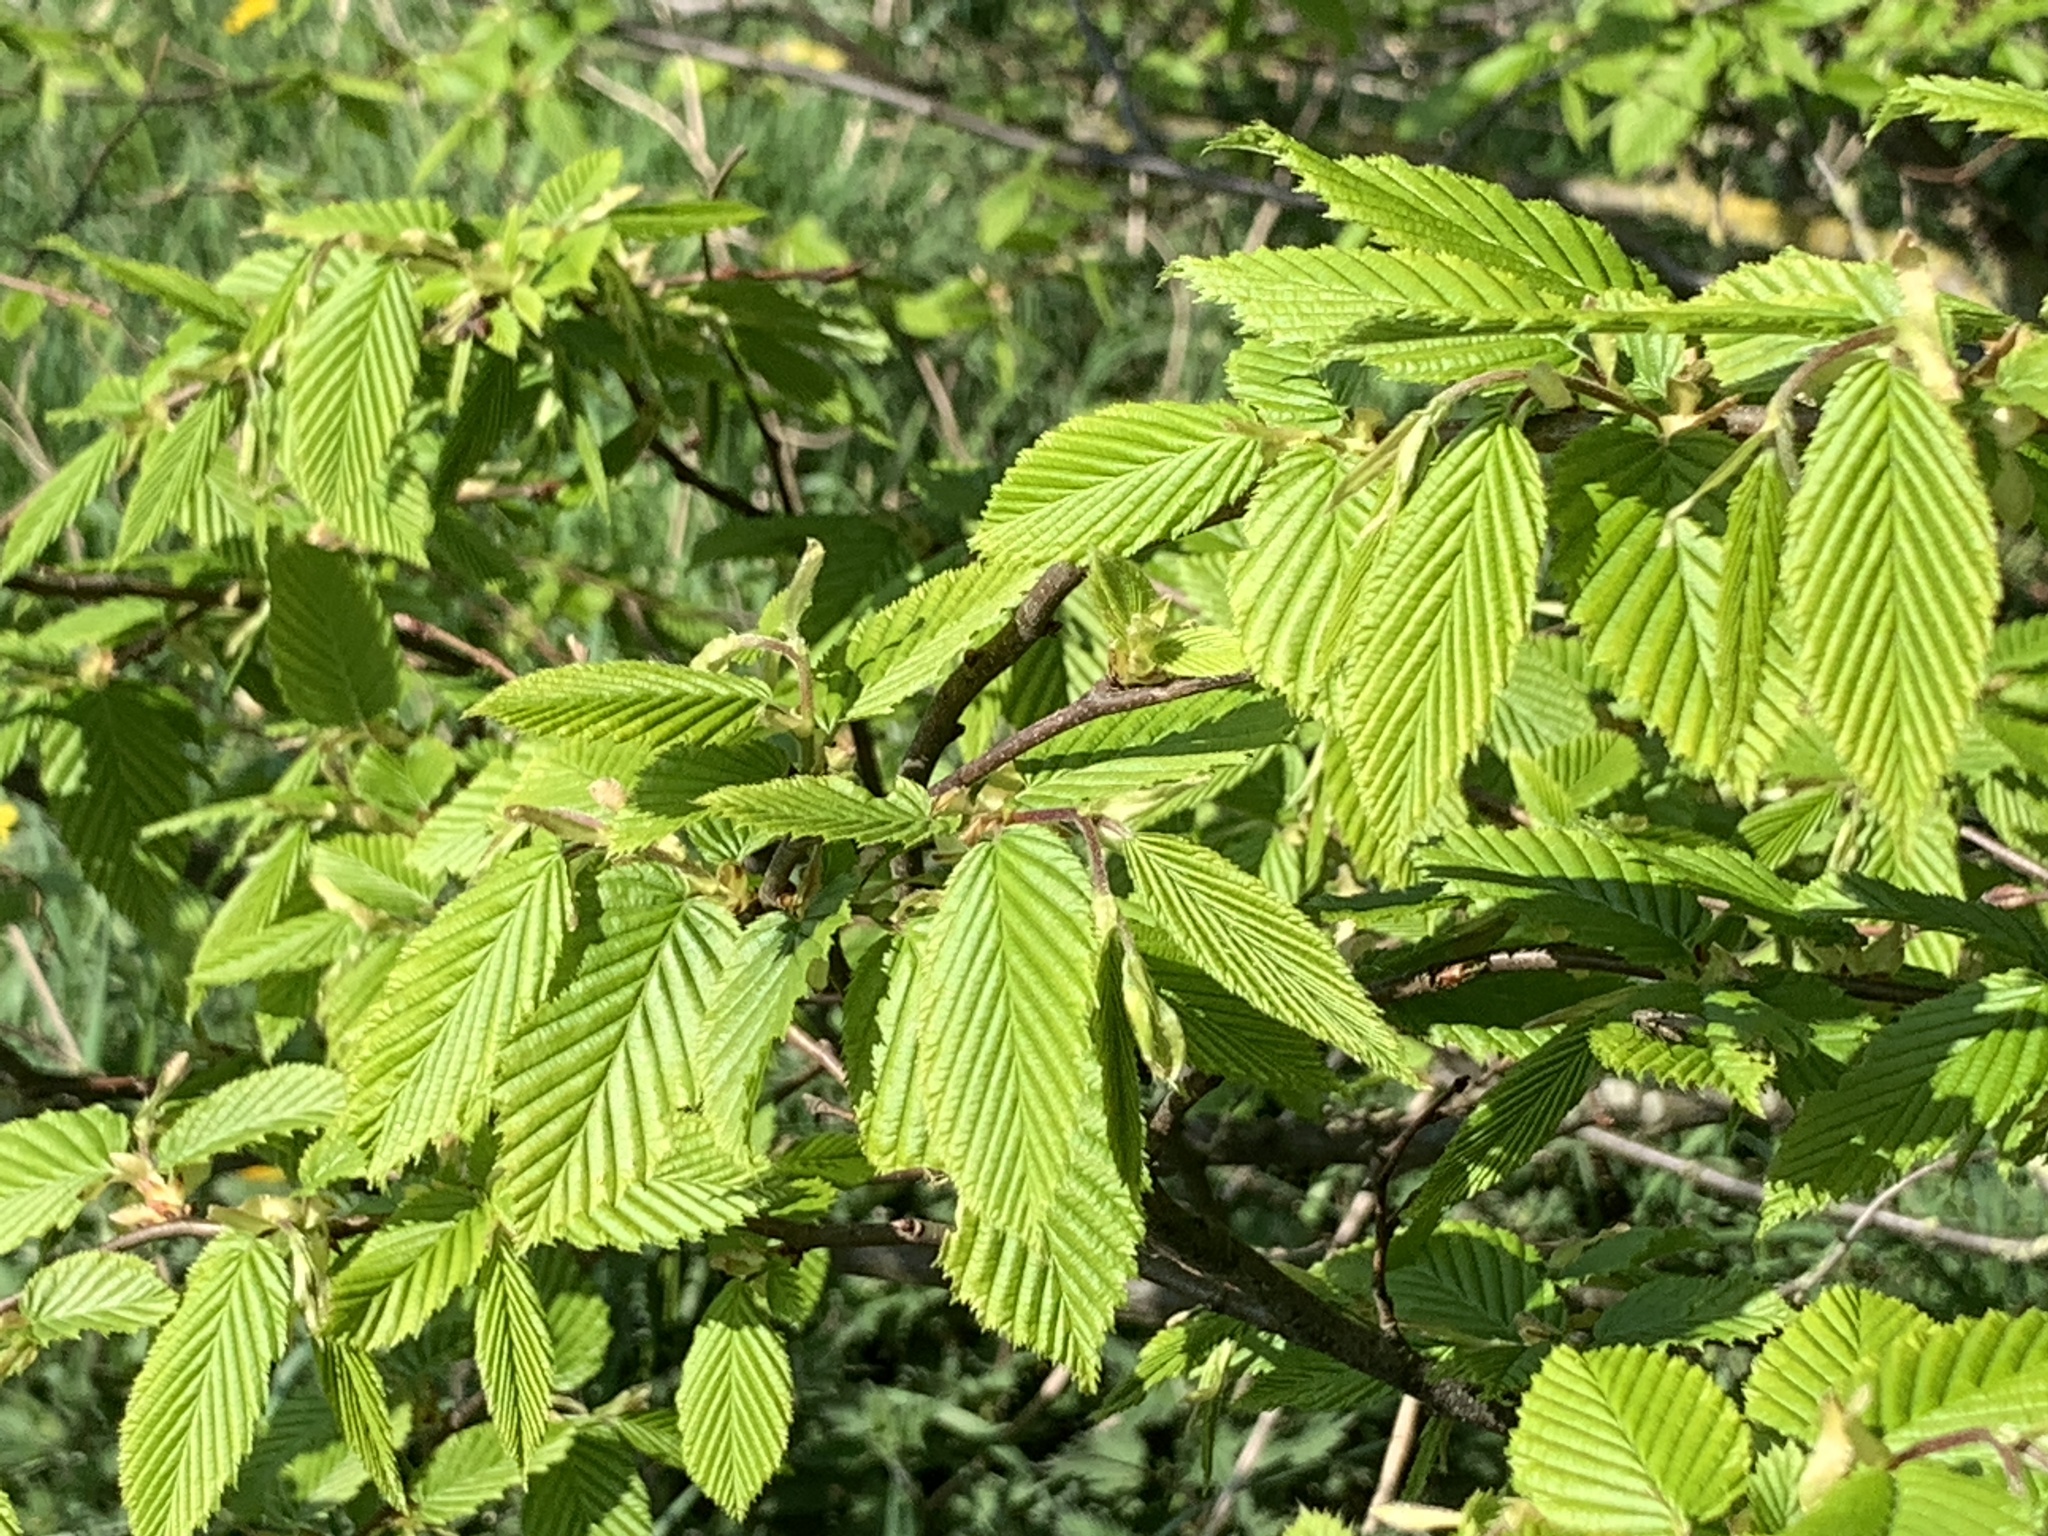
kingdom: Plantae
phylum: Tracheophyta
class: Magnoliopsida
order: Fagales
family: Betulaceae
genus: Carpinus
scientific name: Carpinus betulus
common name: Hornbeam
